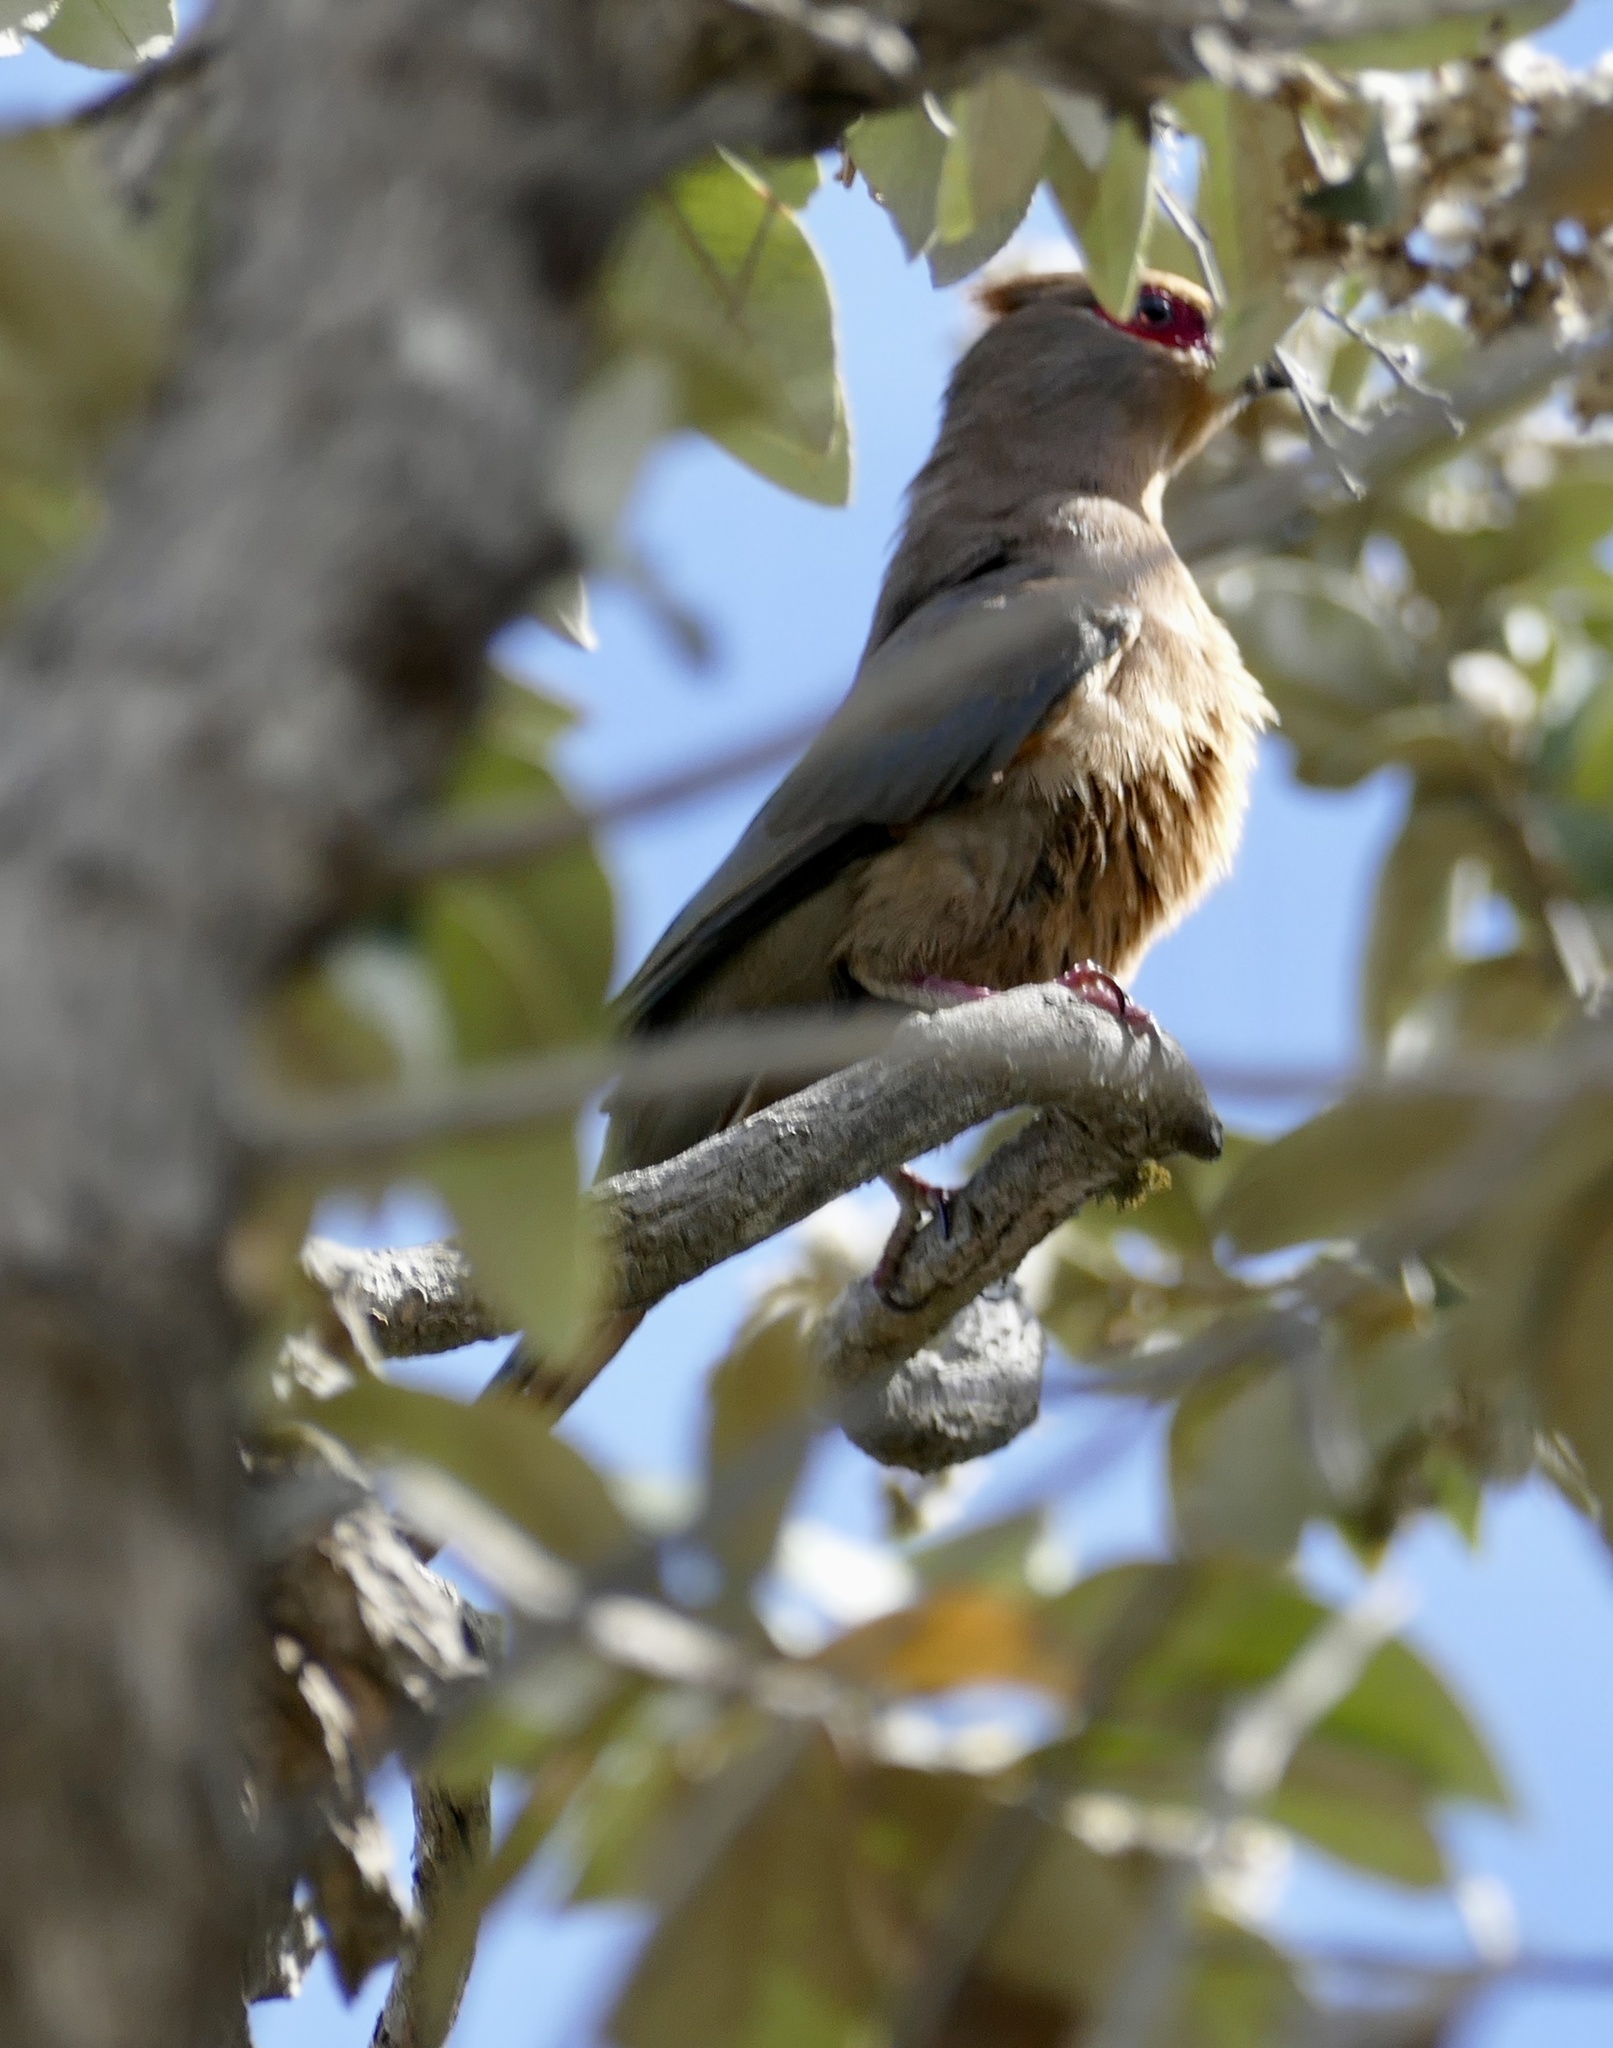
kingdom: Animalia
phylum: Chordata
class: Aves
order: Coliiformes
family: Coliidae
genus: Urocolius
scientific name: Urocolius indicus
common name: Red-faced mousebird
